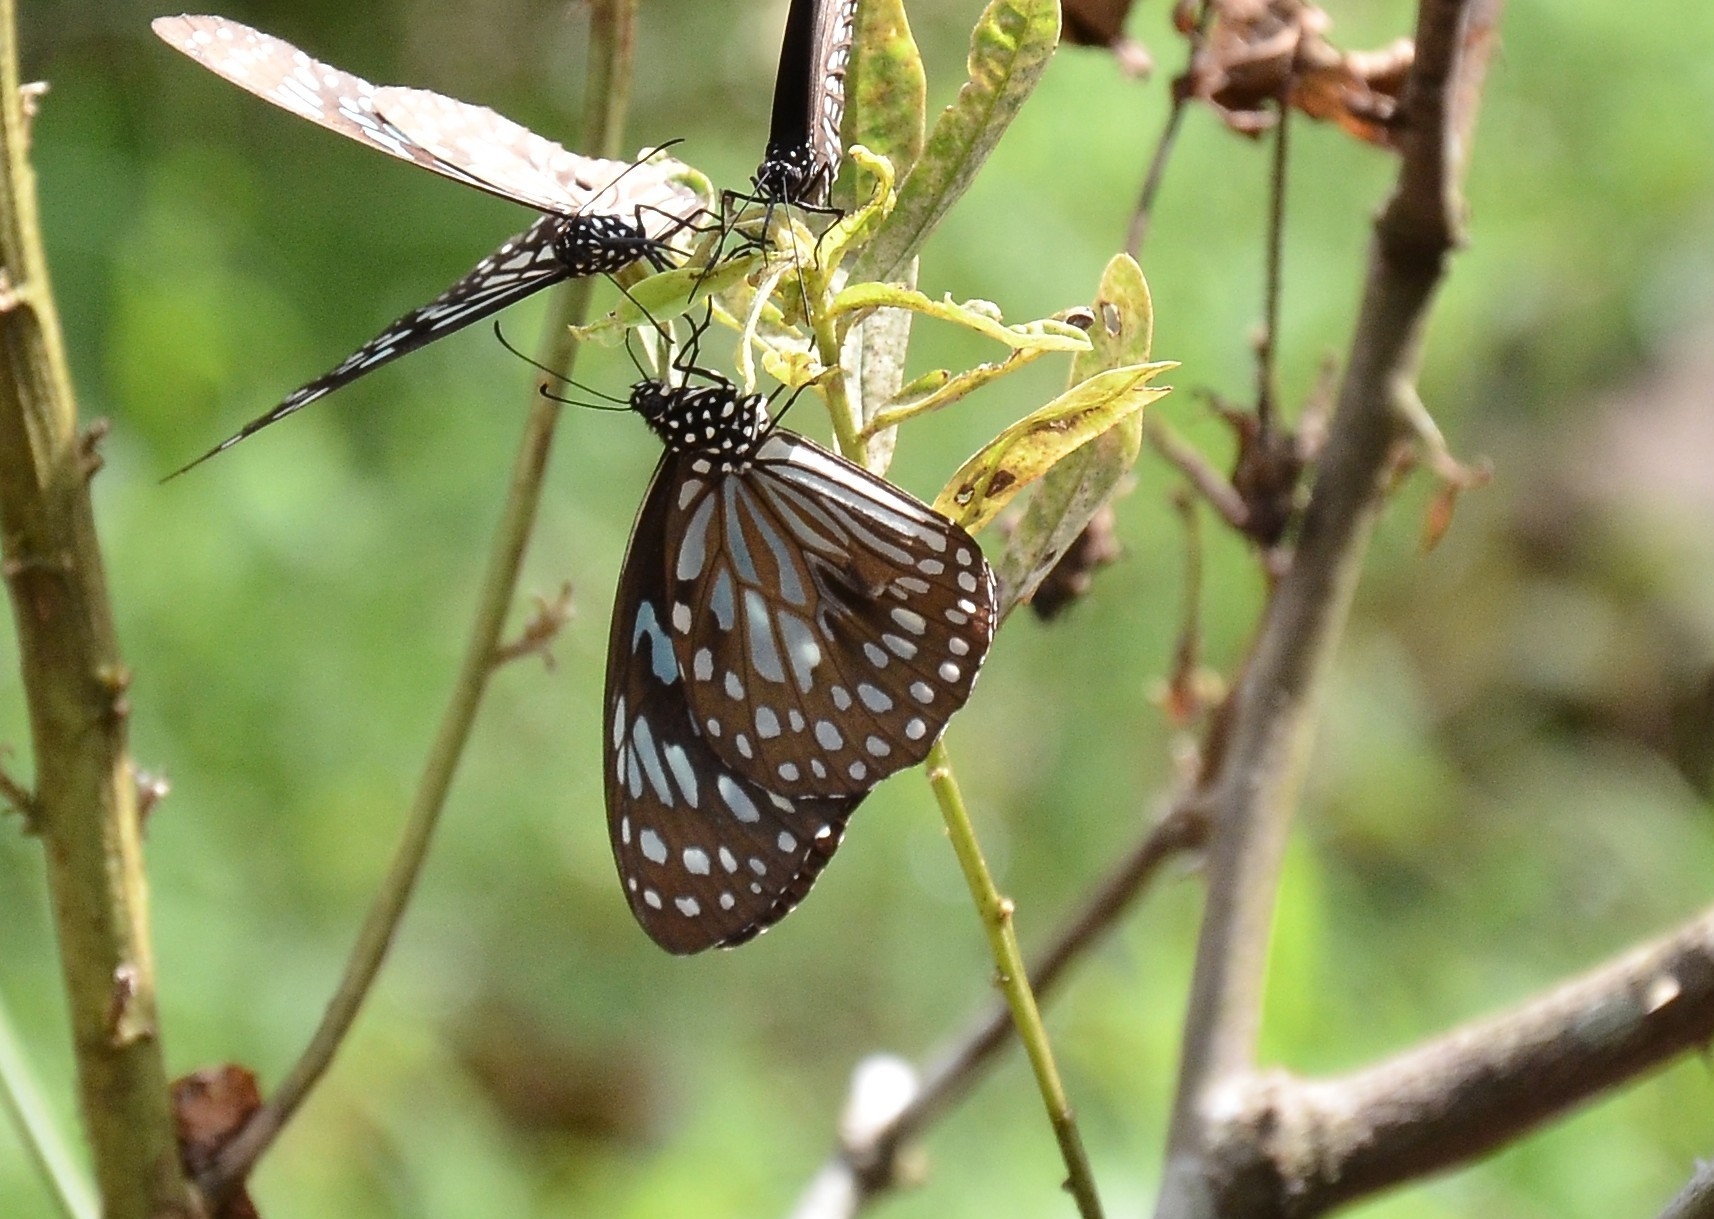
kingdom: Animalia
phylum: Arthropoda
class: Insecta
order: Lepidoptera
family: Nymphalidae
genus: Tirumala
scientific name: Tirumala septentrionis
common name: Dark blue tiger butterfly
